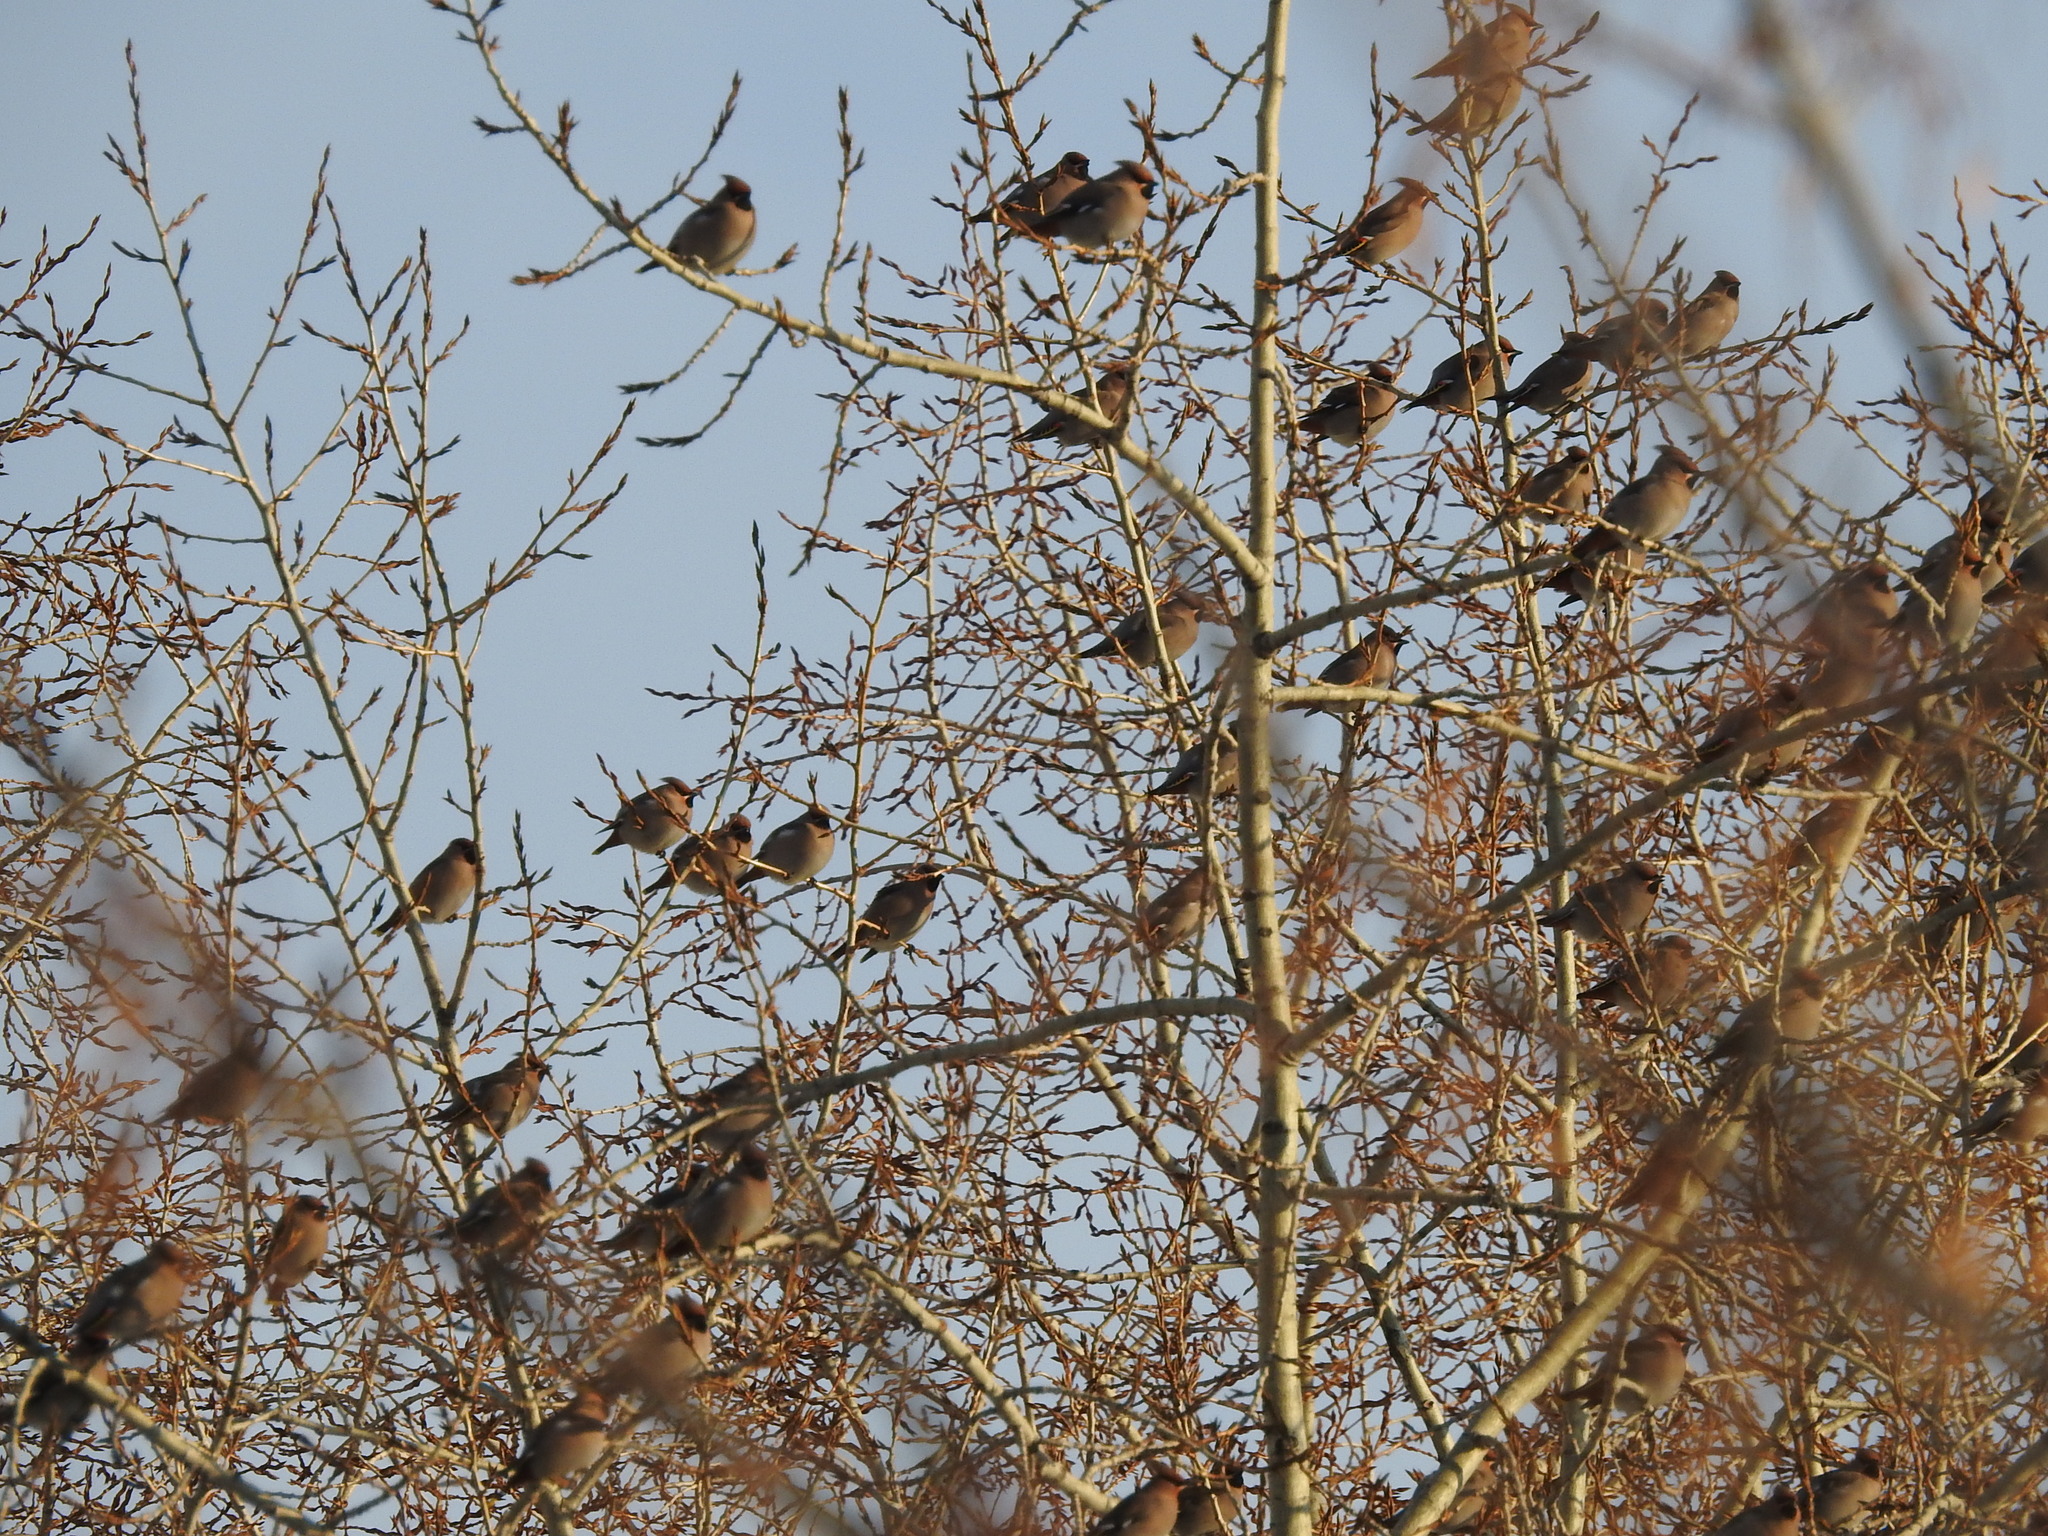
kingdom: Animalia
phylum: Chordata
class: Aves
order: Passeriformes
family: Bombycillidae
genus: Bombycilla
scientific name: Bombycilla garrulus
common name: Bohemian waxwing
